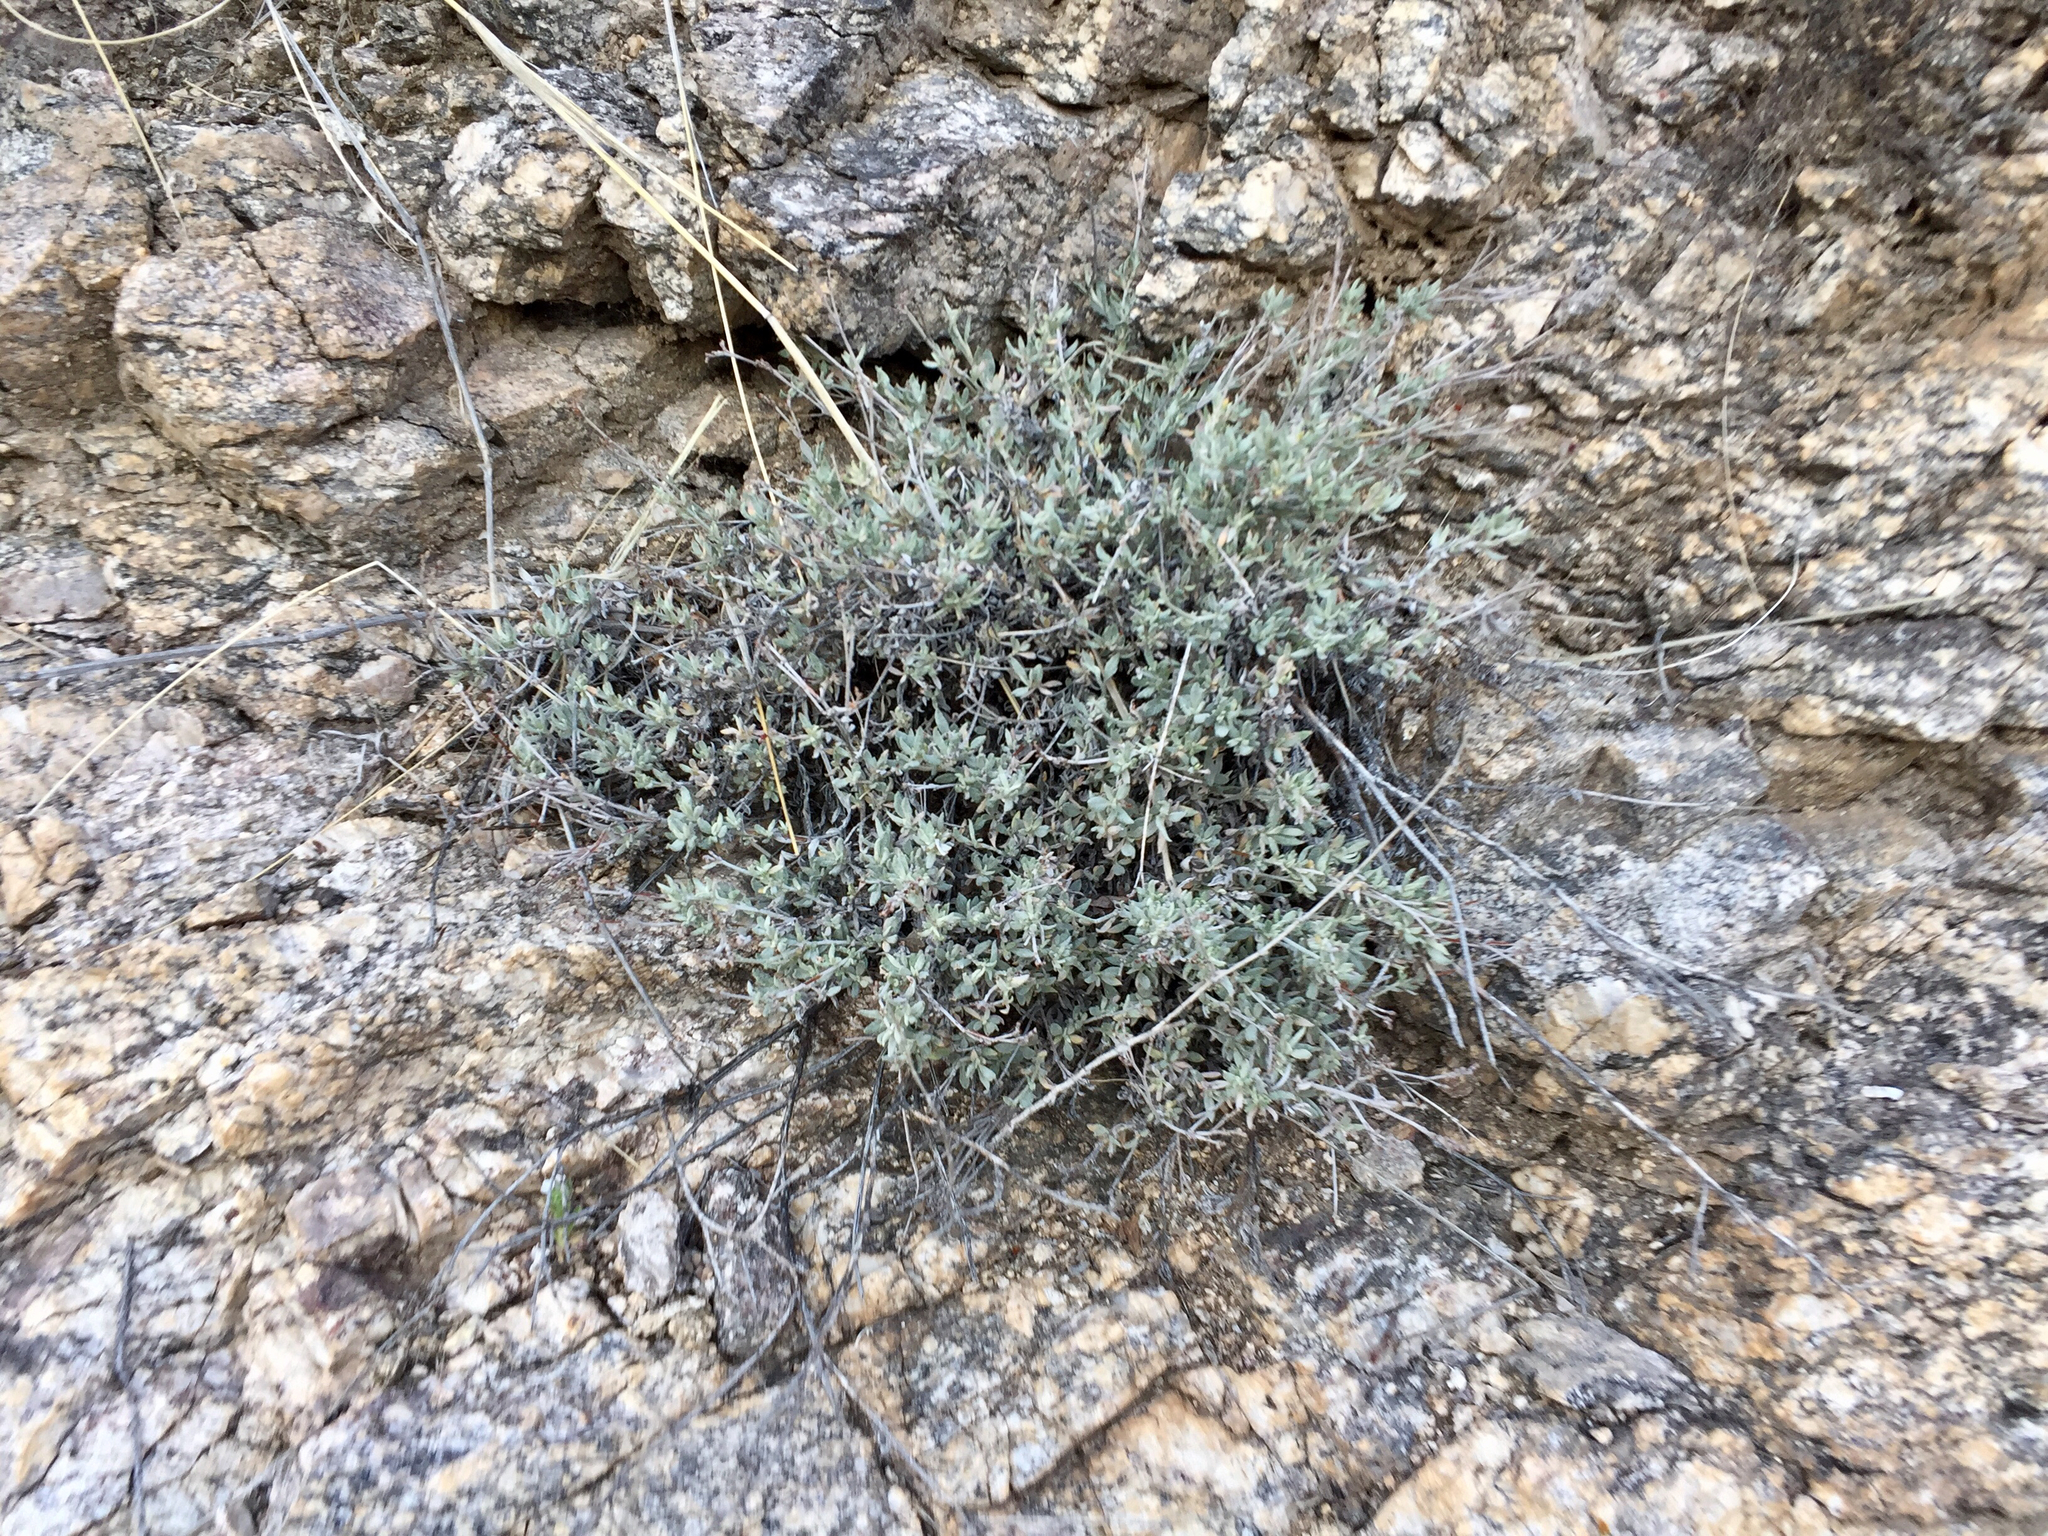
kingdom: Plantae
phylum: Tracheophyta
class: Magnoliopsida
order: Caryophyllales
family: Polygonaceae
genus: Eriogonum
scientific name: Eriogonum wrightii
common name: Bastard-sage
